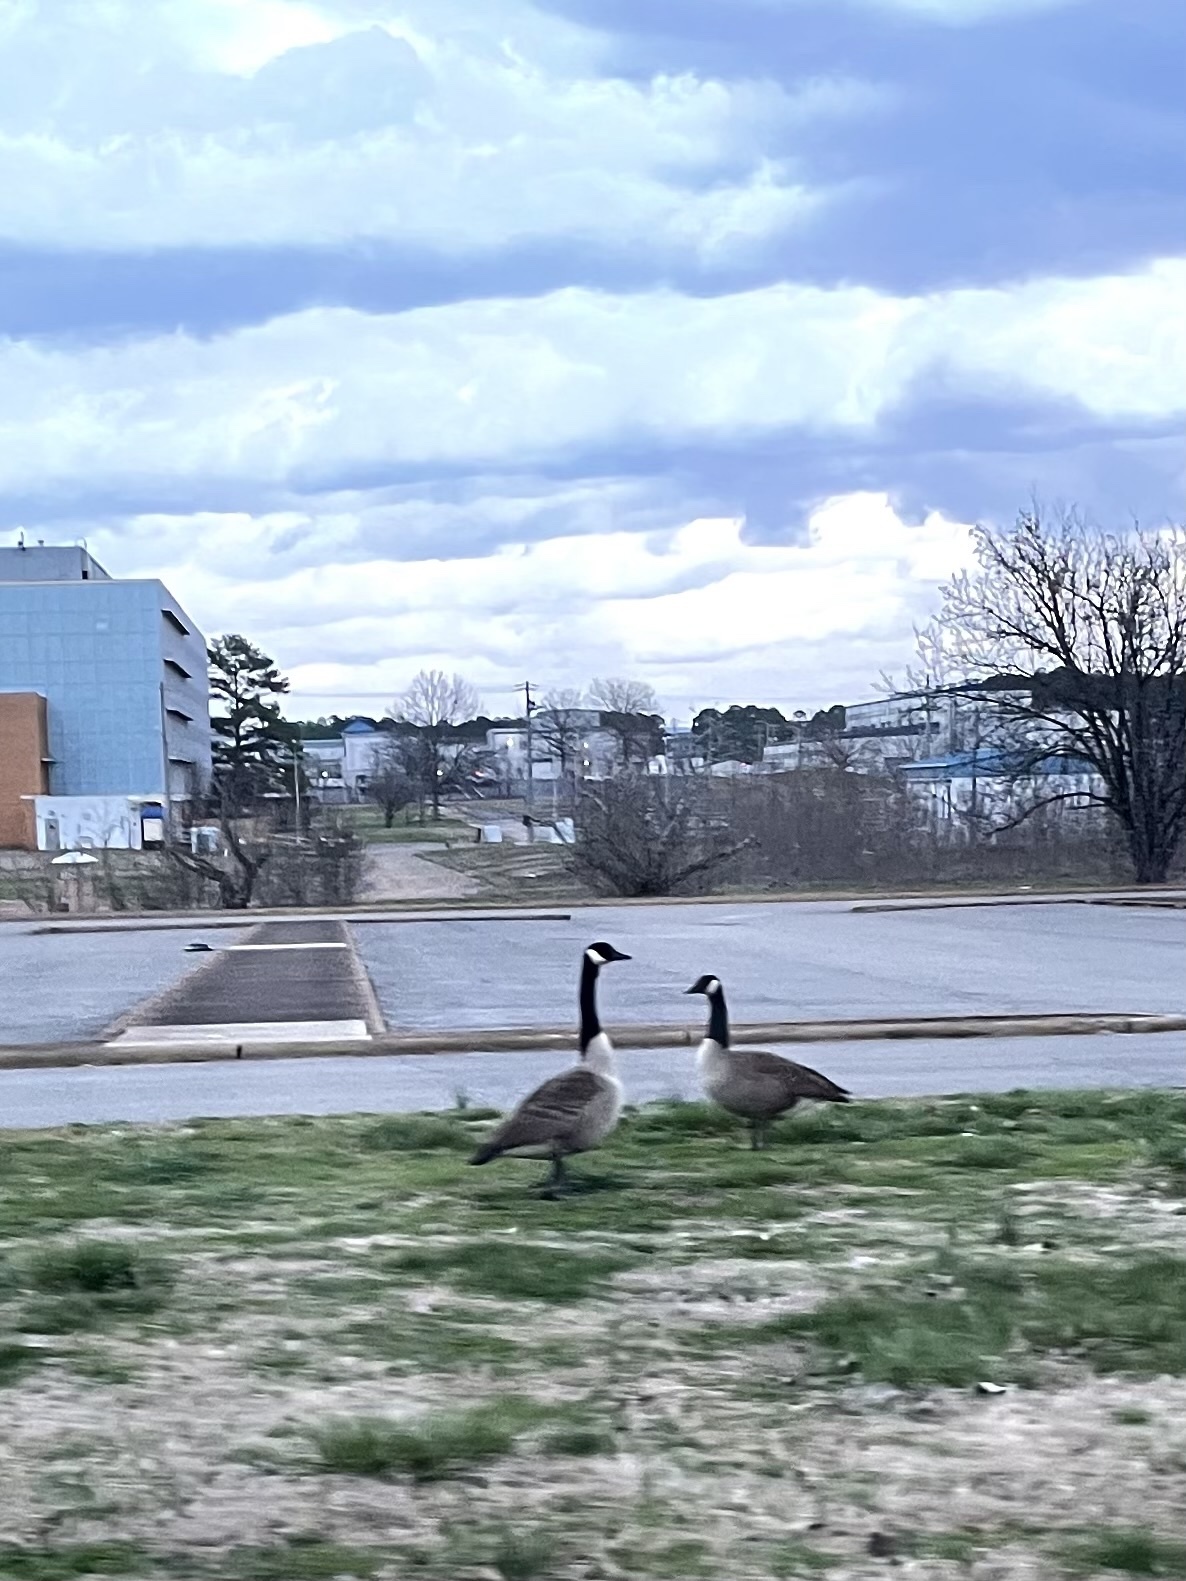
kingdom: Animalia
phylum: Chordata
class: Aves
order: Anseriformes
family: Anatidae
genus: Branta
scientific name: Branta canadensis
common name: Canada goose
